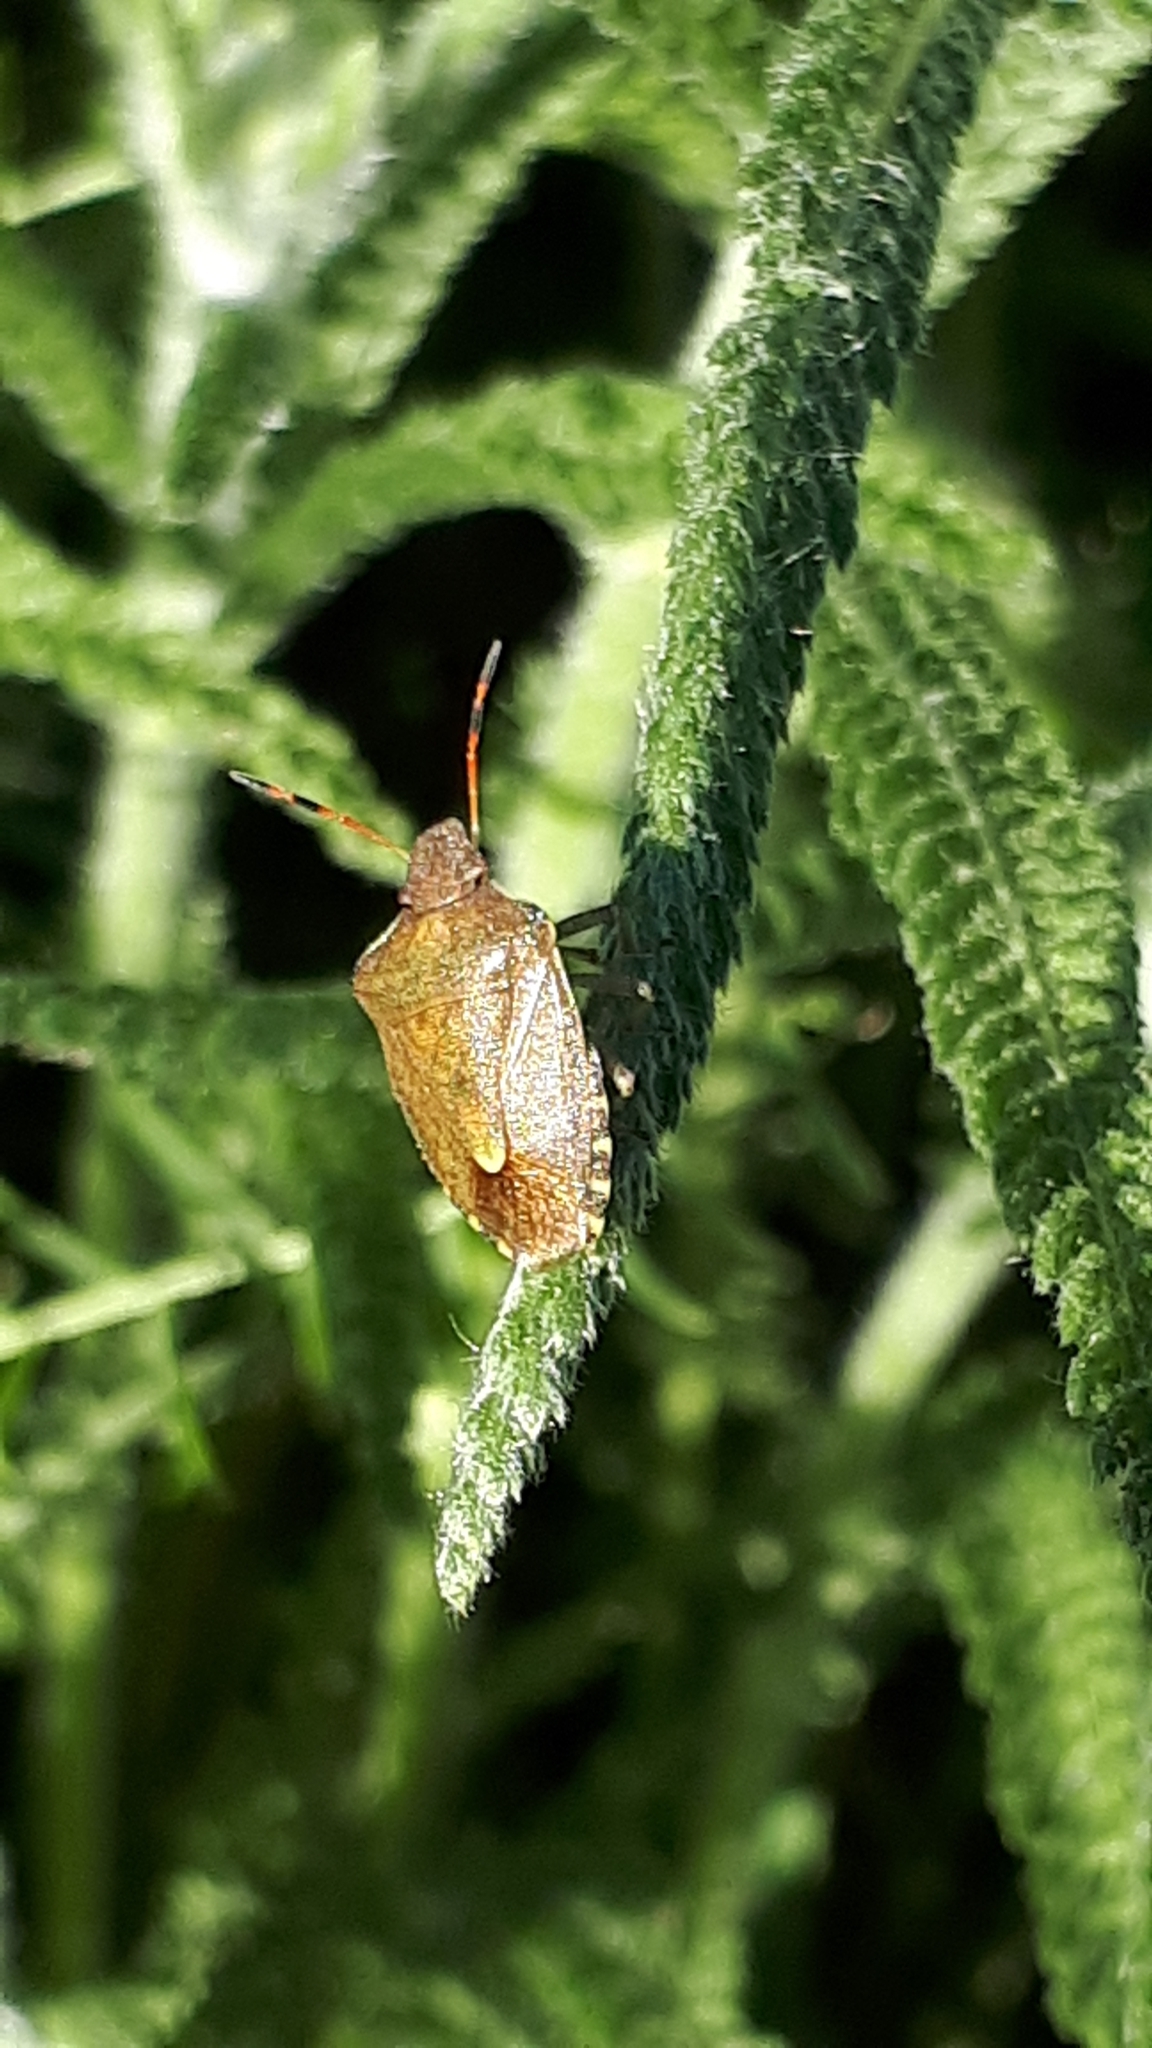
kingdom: Animalia
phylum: Arthropoda
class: Insecta
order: Hemiptera
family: Pentatomidae
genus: Holcostethus
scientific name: Holcostethus strictus
